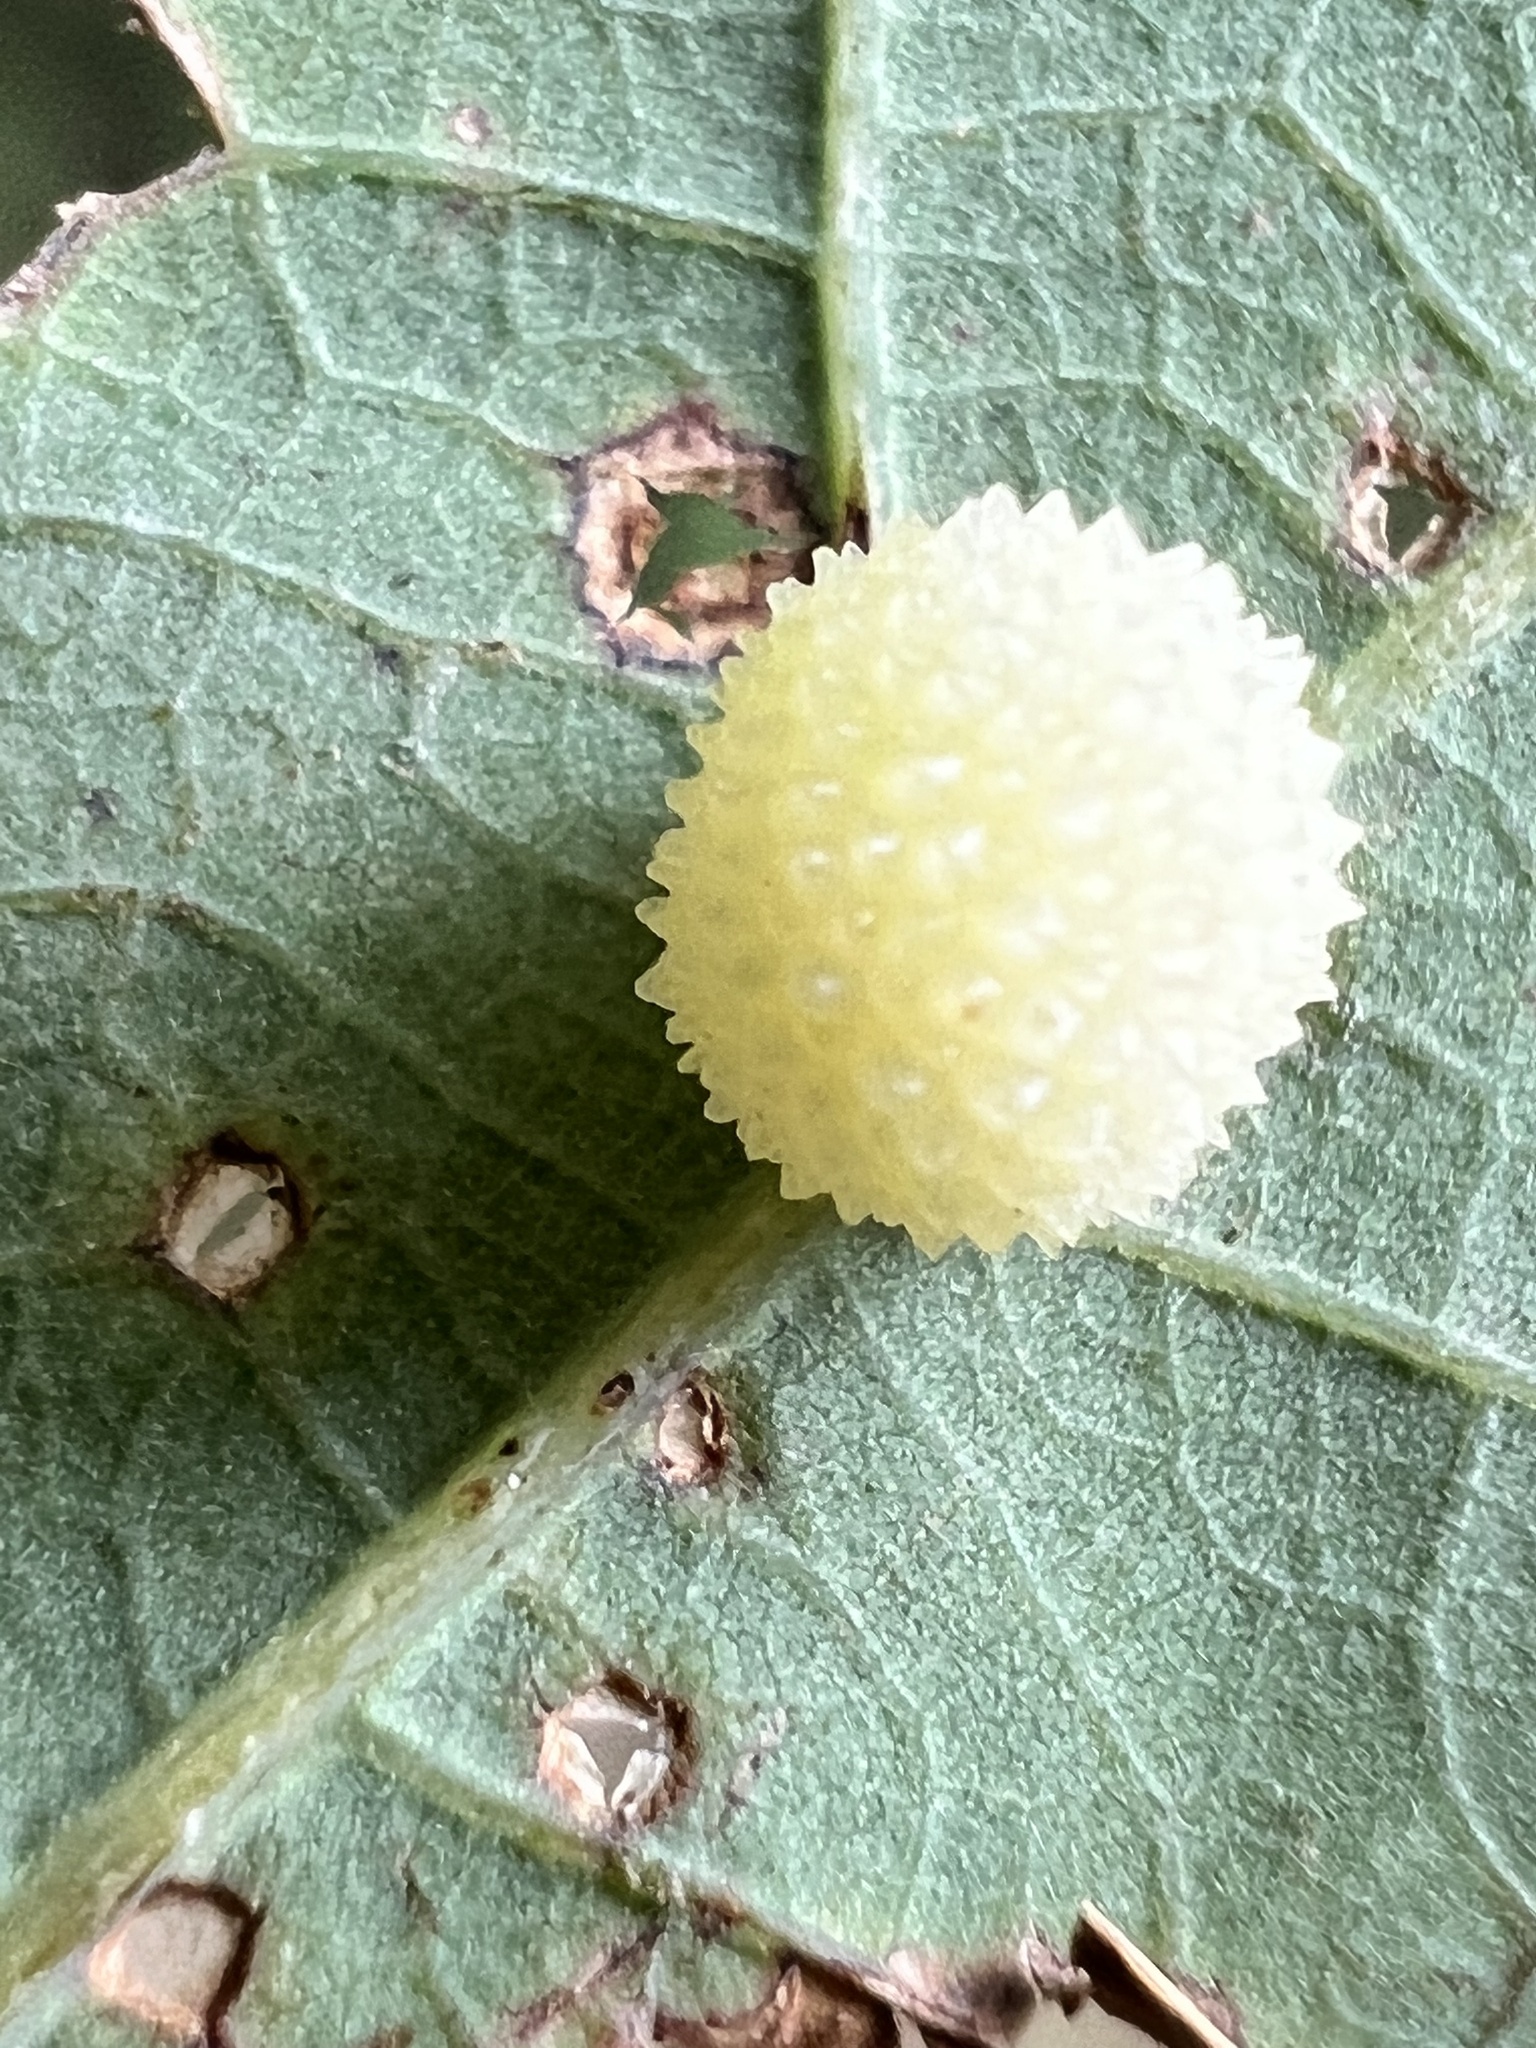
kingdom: Animalia
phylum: Arthropoda
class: Insecta
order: Hymenoptera
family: Cynipidae
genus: Acraspis
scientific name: Acraspis
